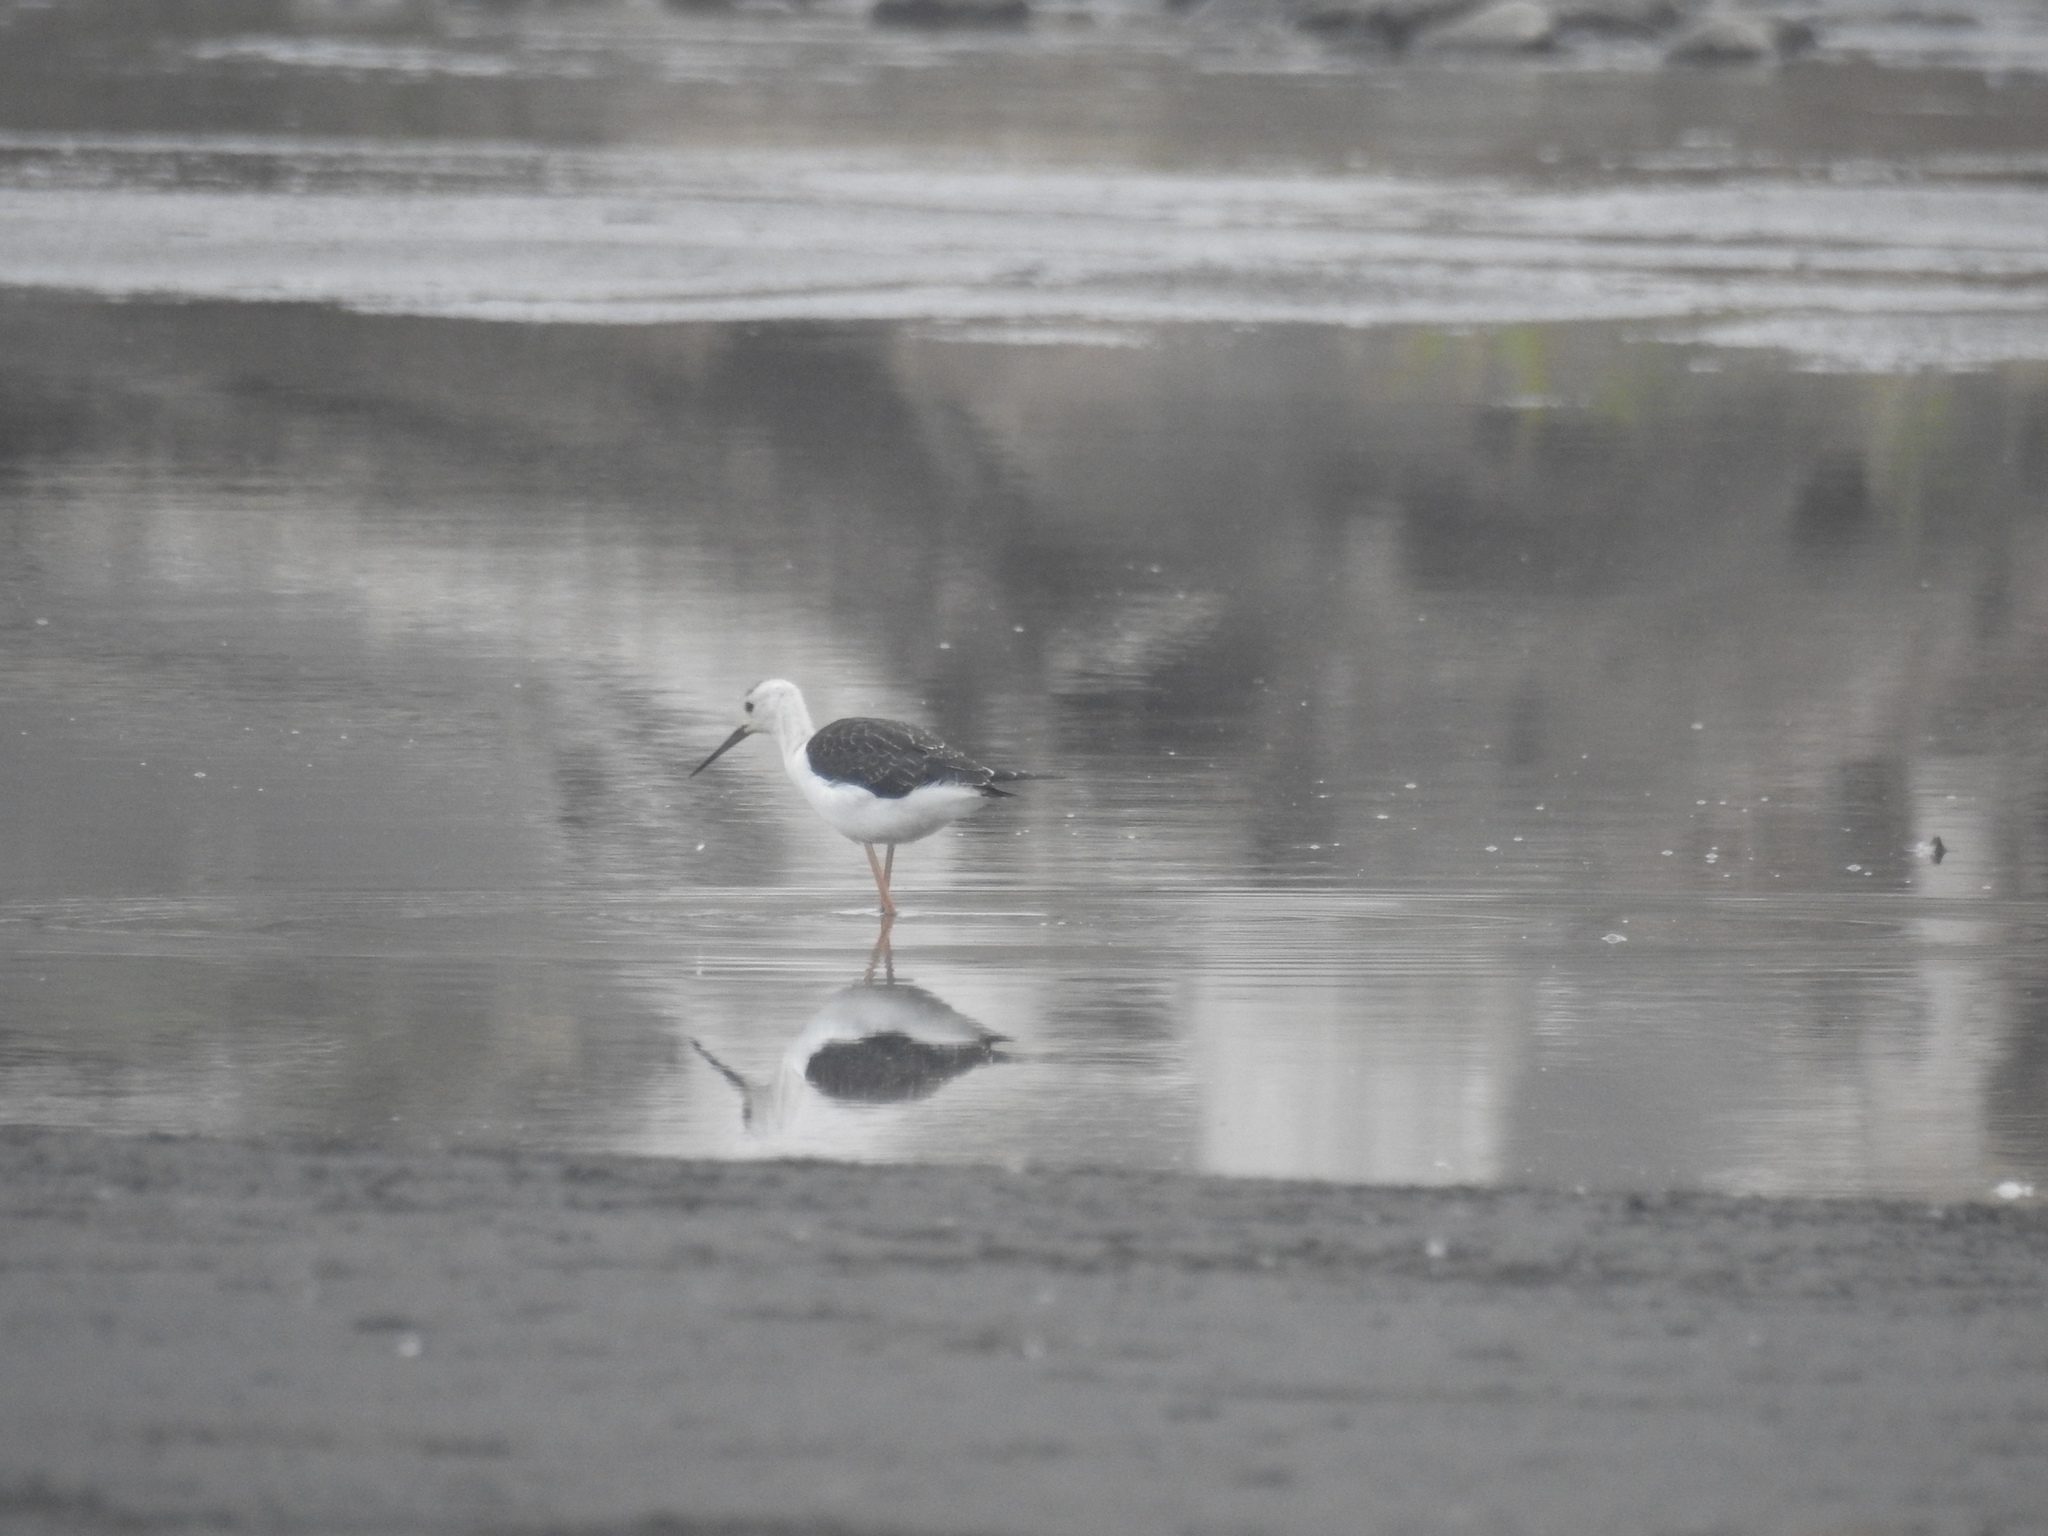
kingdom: Animalia
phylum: Chordata
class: Aves
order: Charadriiformes
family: Recurvirostridae
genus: Himantopus
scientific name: Himantopus leucocephalus
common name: White-headed stilt
